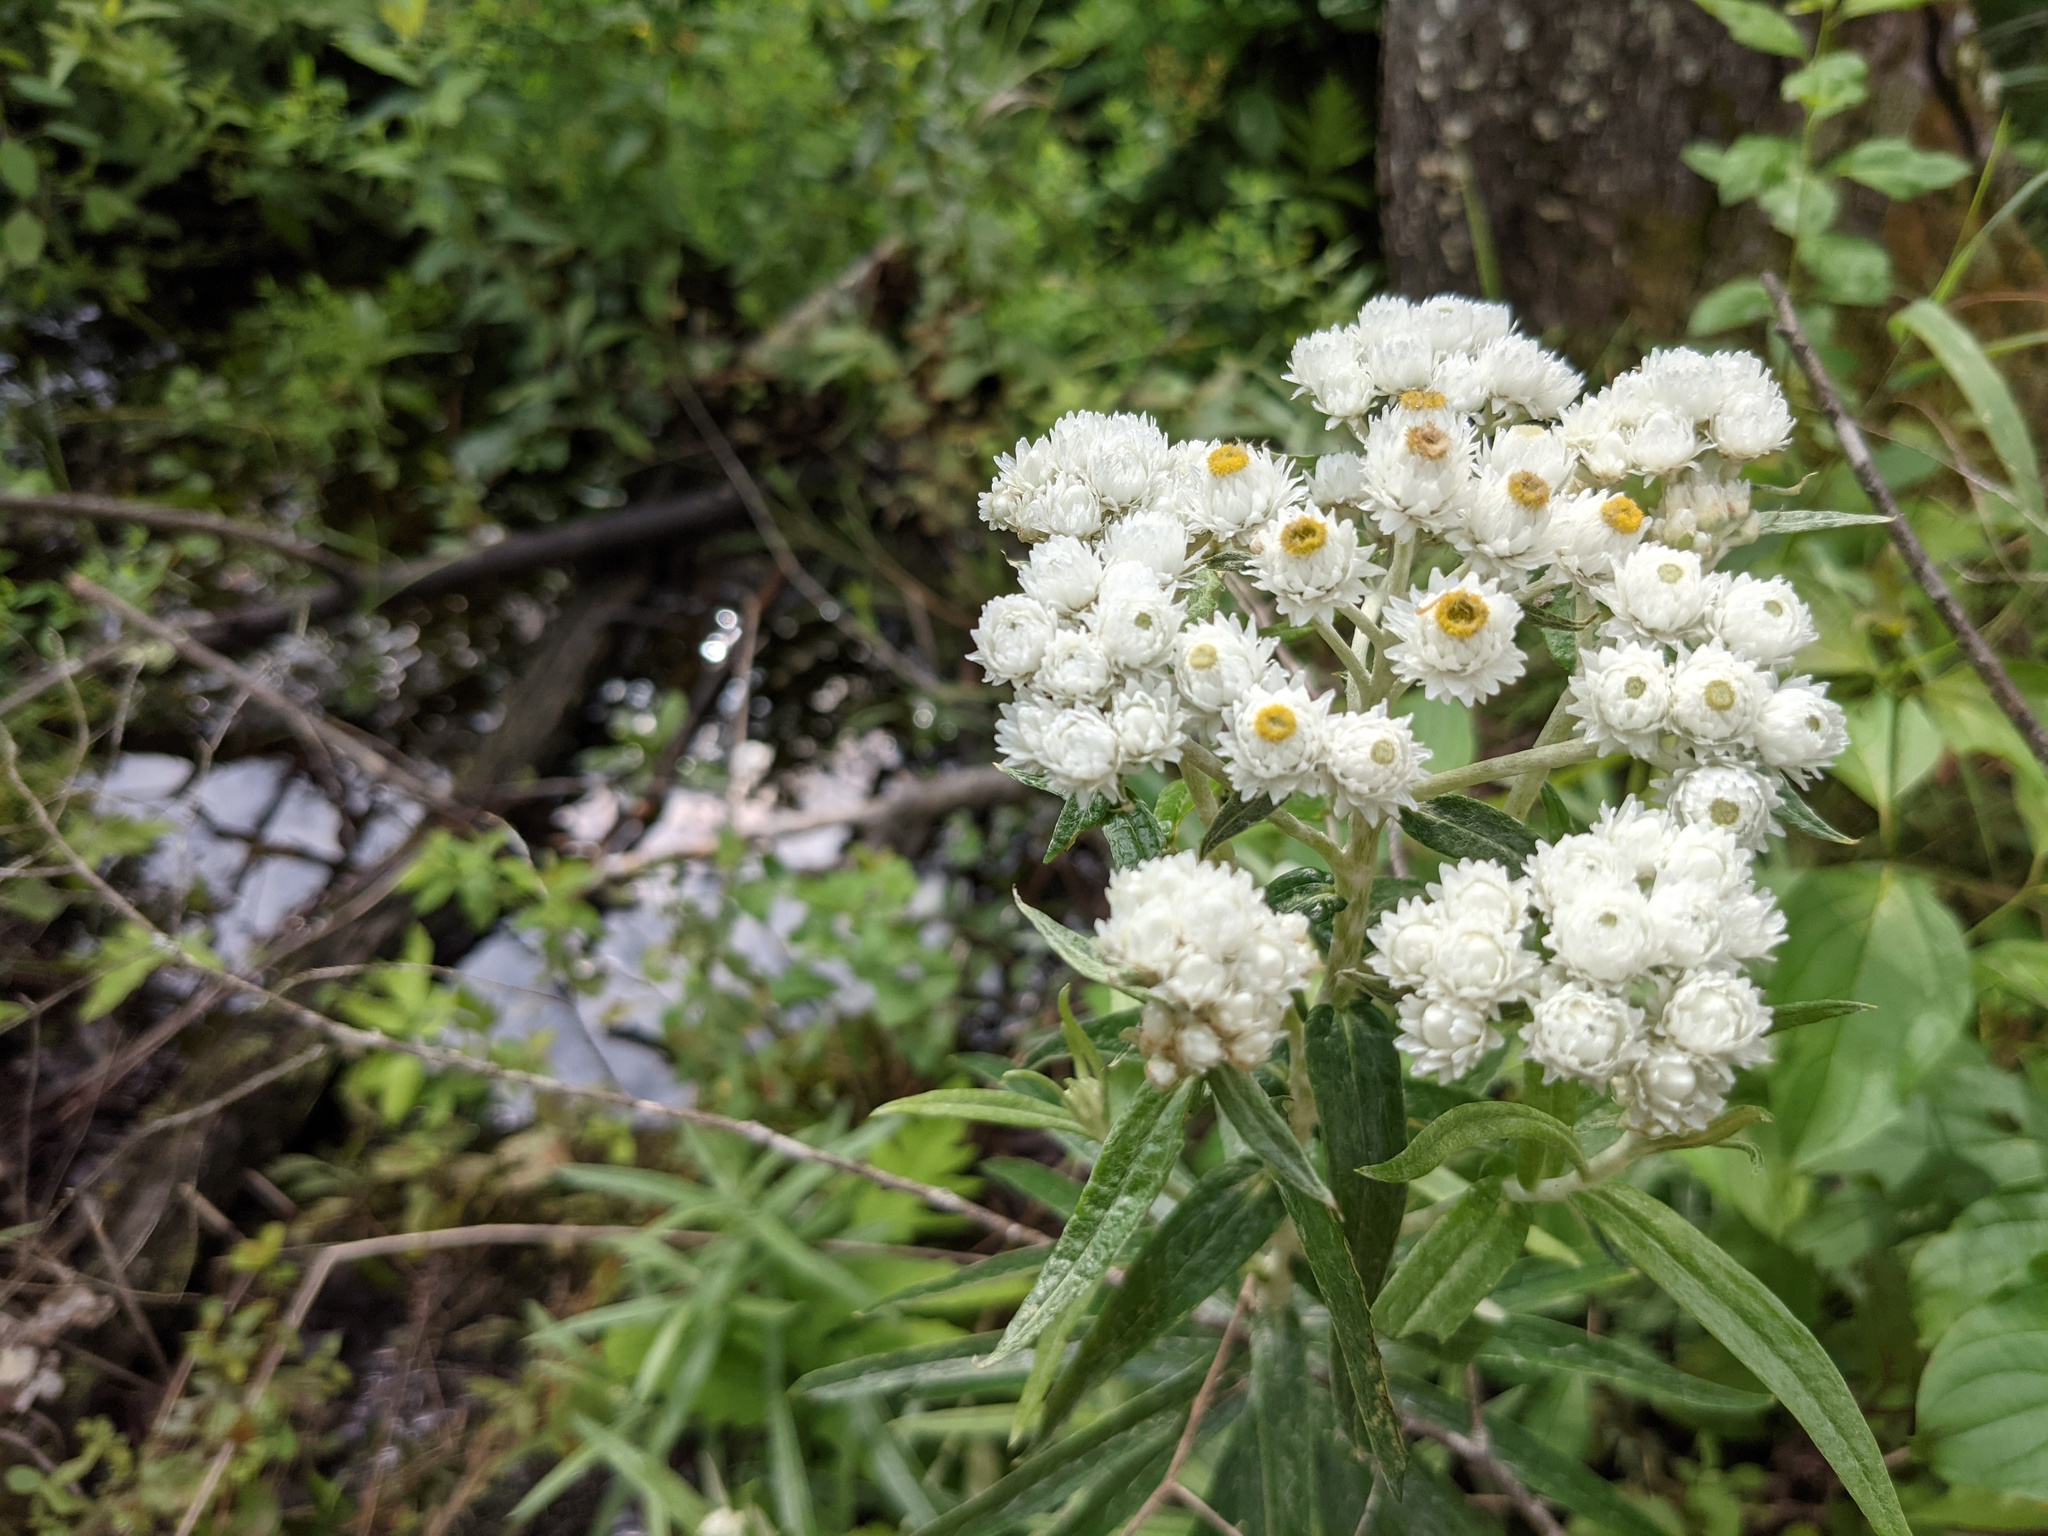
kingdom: Plantae
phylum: Tracheophyta
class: Magnoliopsida
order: Asterales
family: Asteraceae
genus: Anaphalis
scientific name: Anaphalis margaritacea
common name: Pearly everlasting
